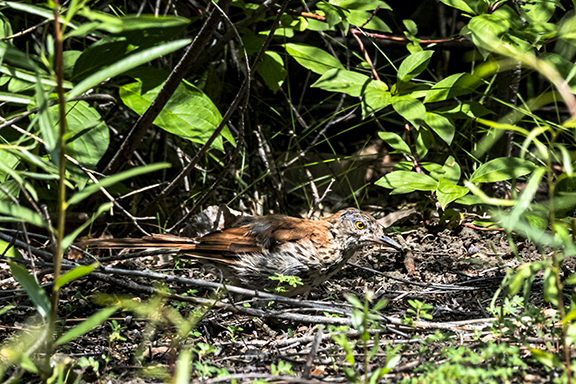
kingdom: Animalia
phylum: Chordata
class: Aves
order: Passeriformes
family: Mimidae
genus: Toxostoma
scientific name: Toxostoma rufum
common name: Brown thrasher
